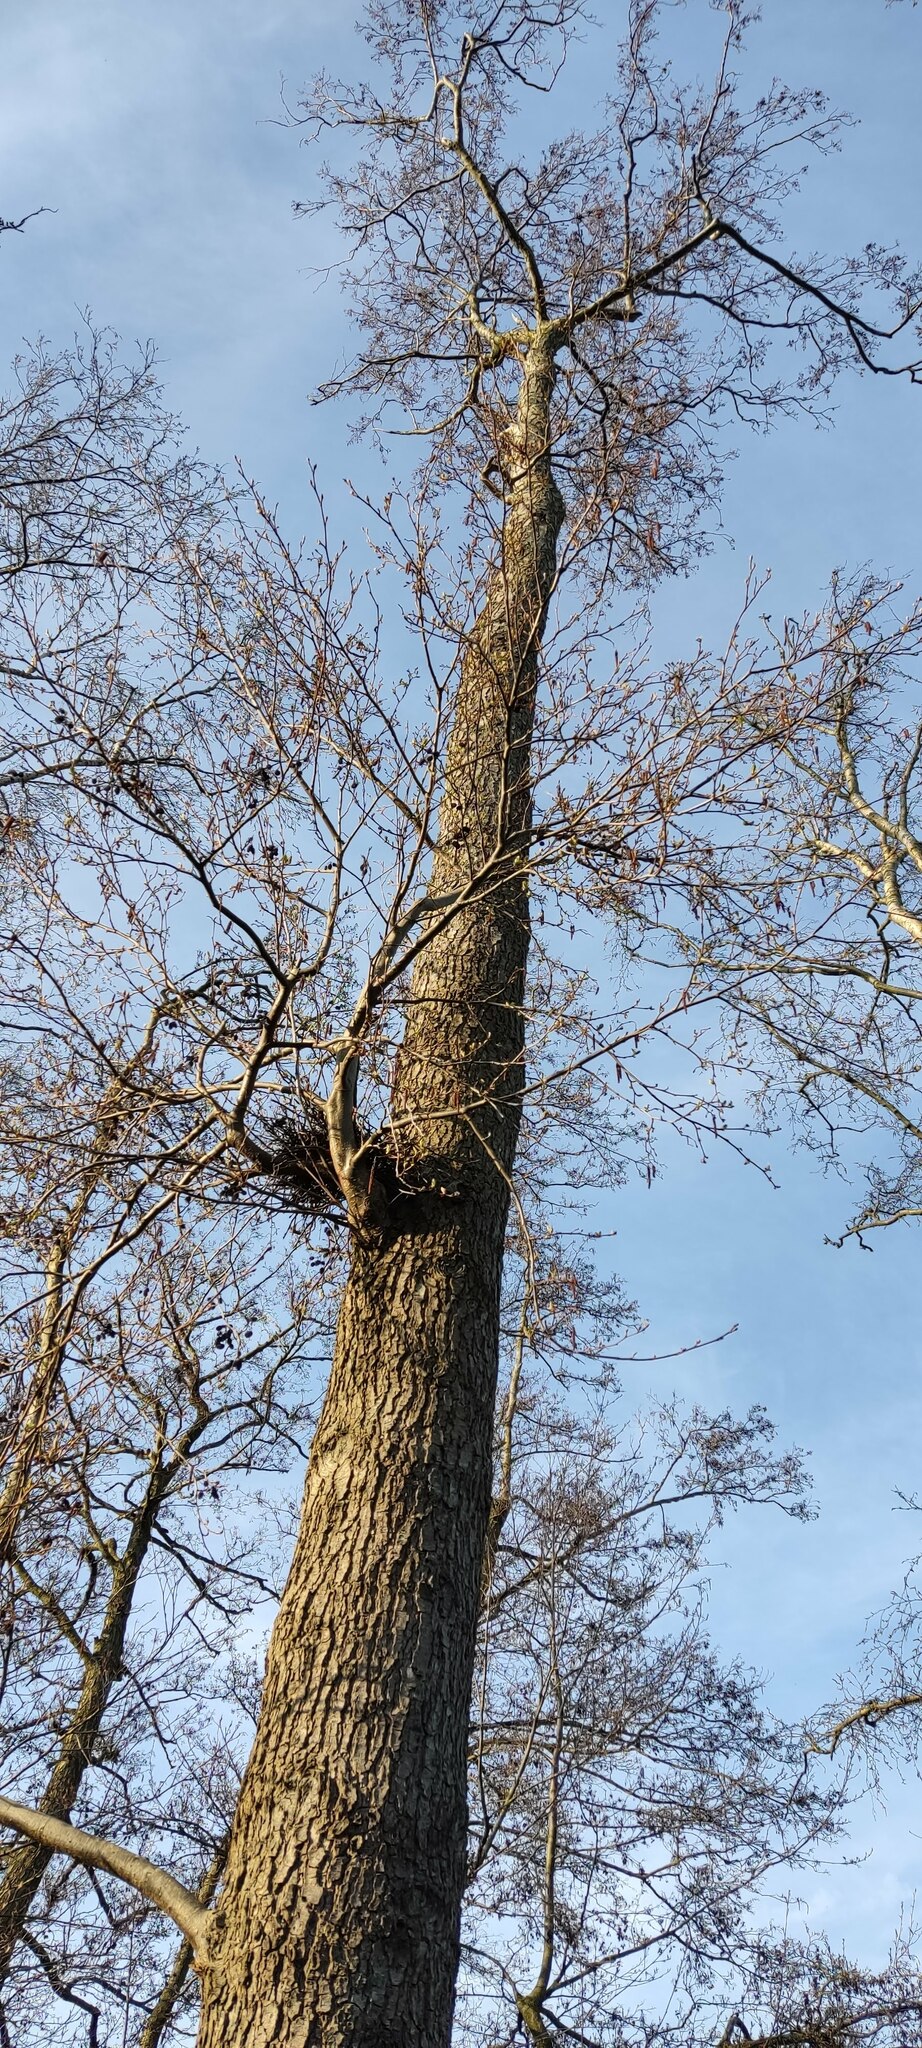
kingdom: Plantae
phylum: Tracheophyta
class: Magnoliopsida
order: Fagales
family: Betulaceae
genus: Alnus
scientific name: Alnus glutinosa
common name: Black alder
